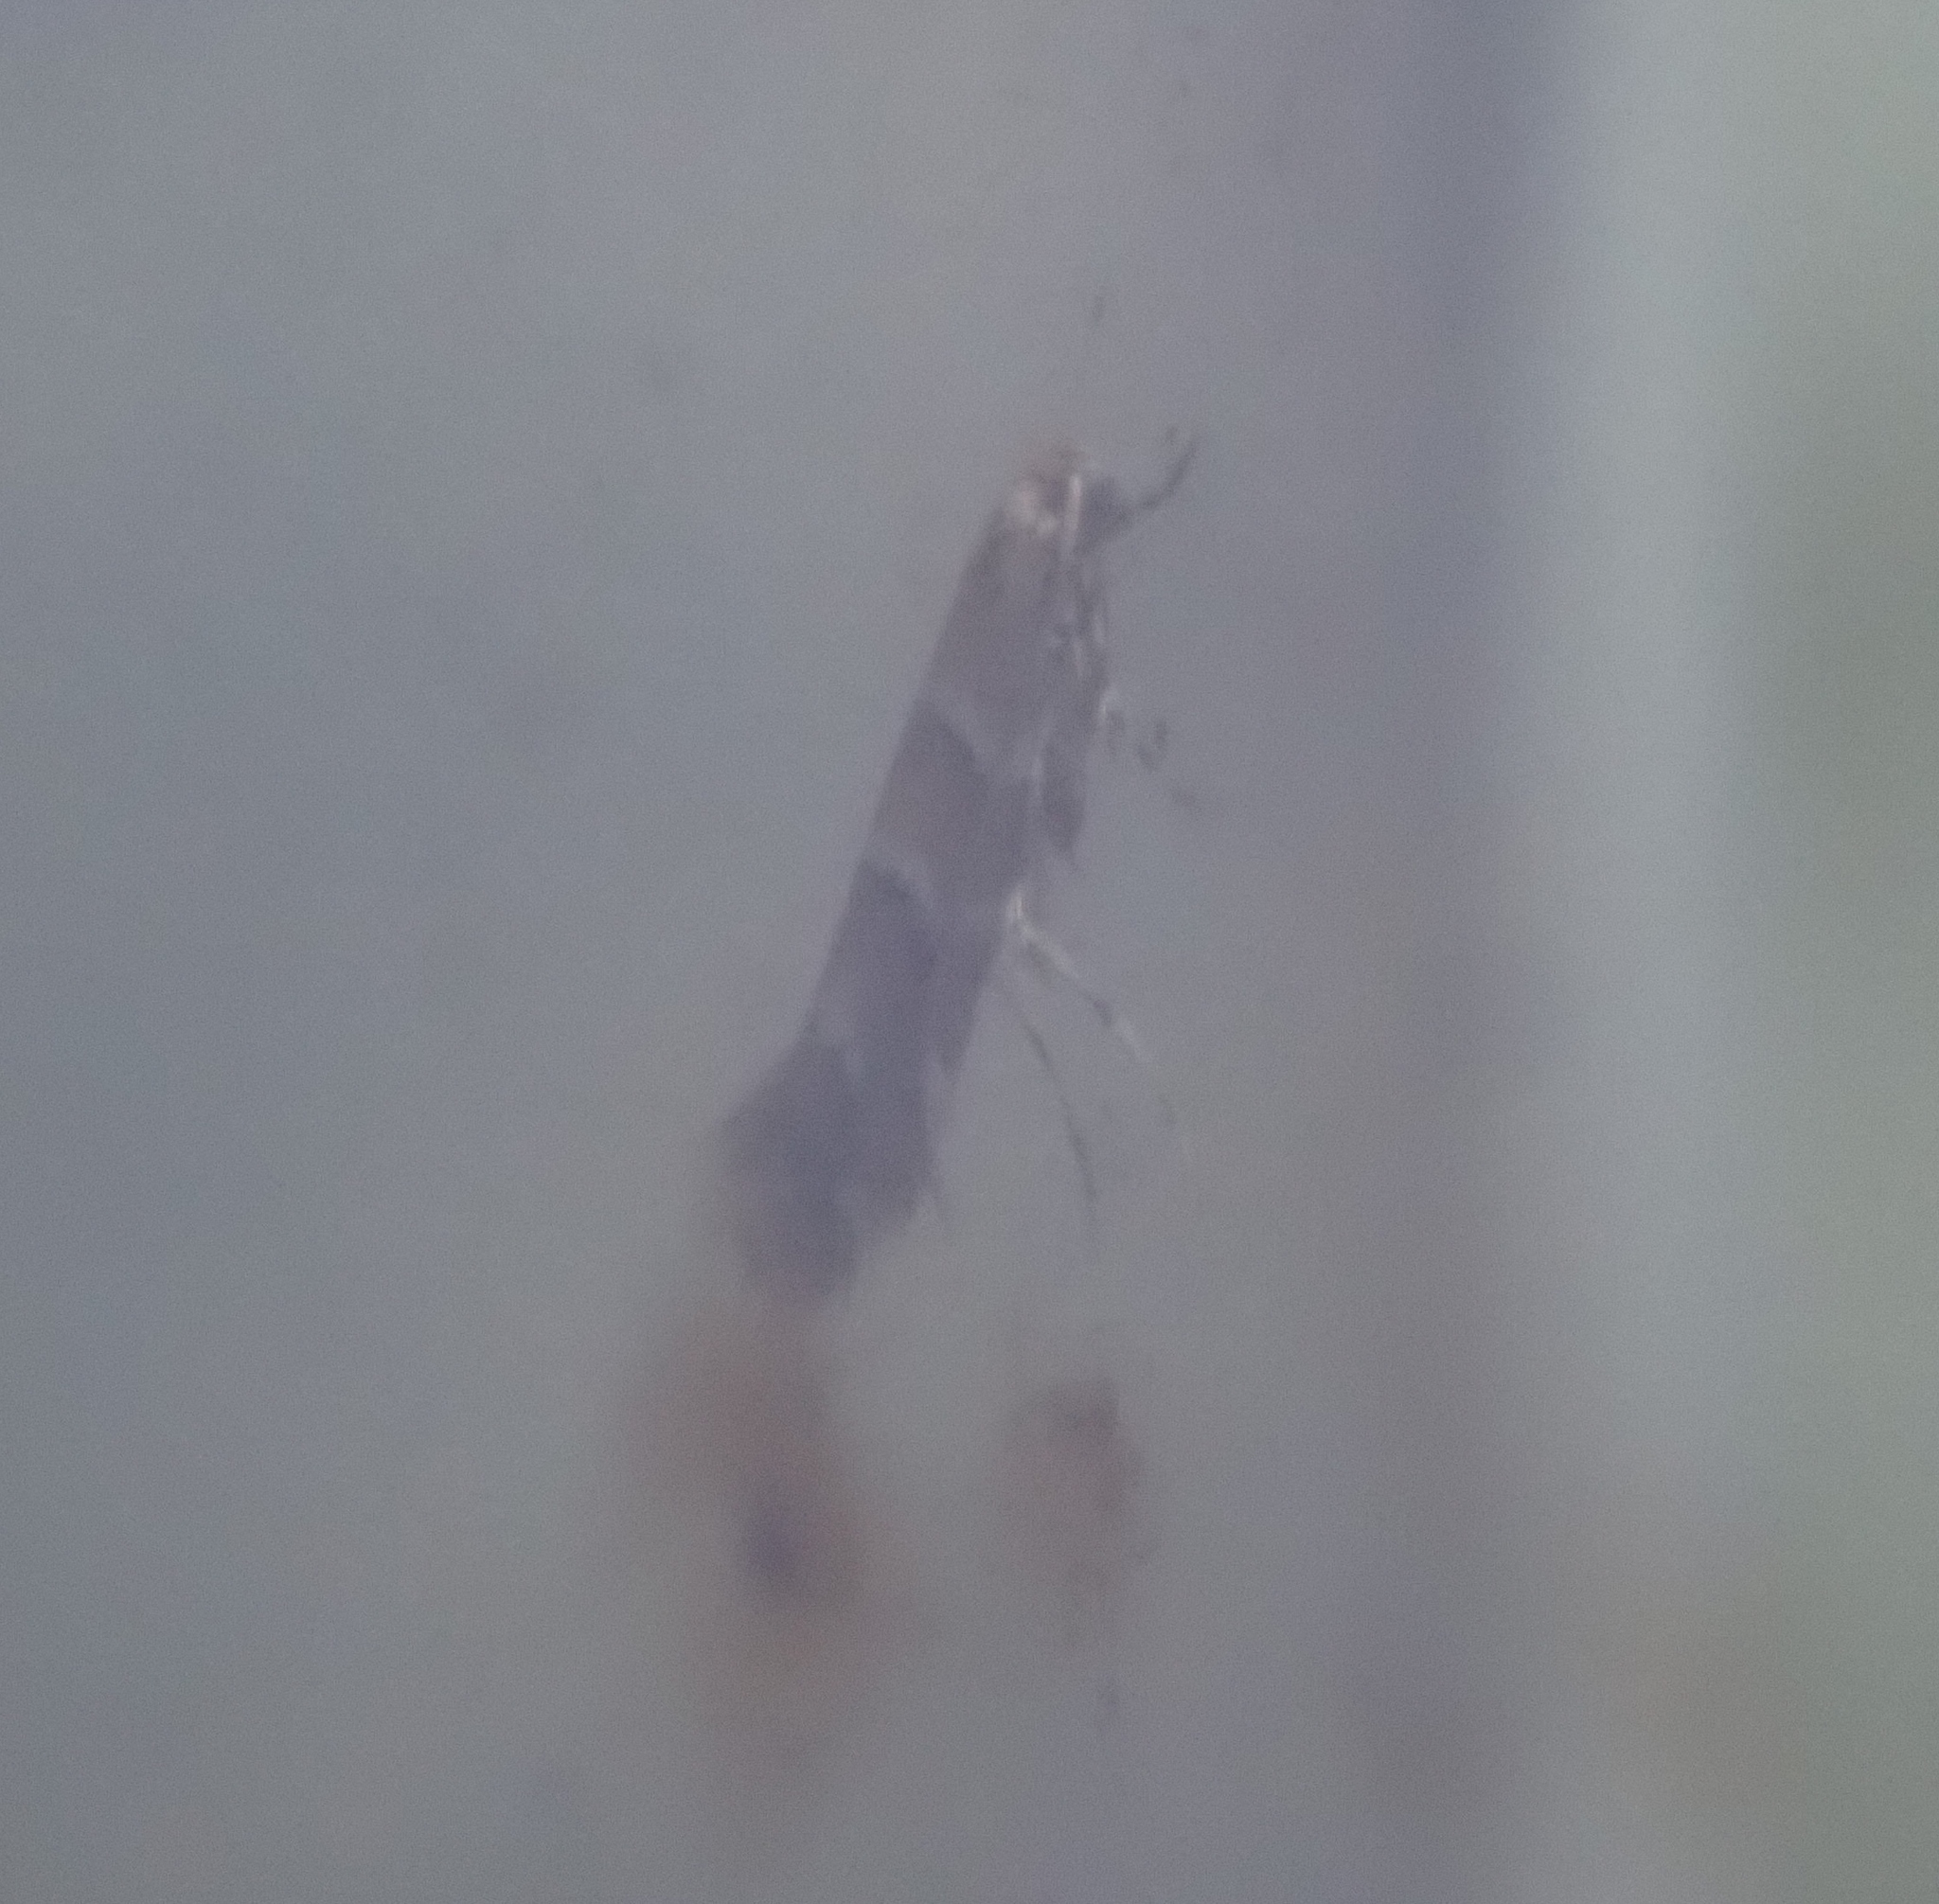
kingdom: Animalia
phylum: Arthropoda
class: Insecta
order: Lepidoptera
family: Gracillariidae
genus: Cameraria
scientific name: Cameraria ohridella
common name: Horse-chestnut leaf-miner
